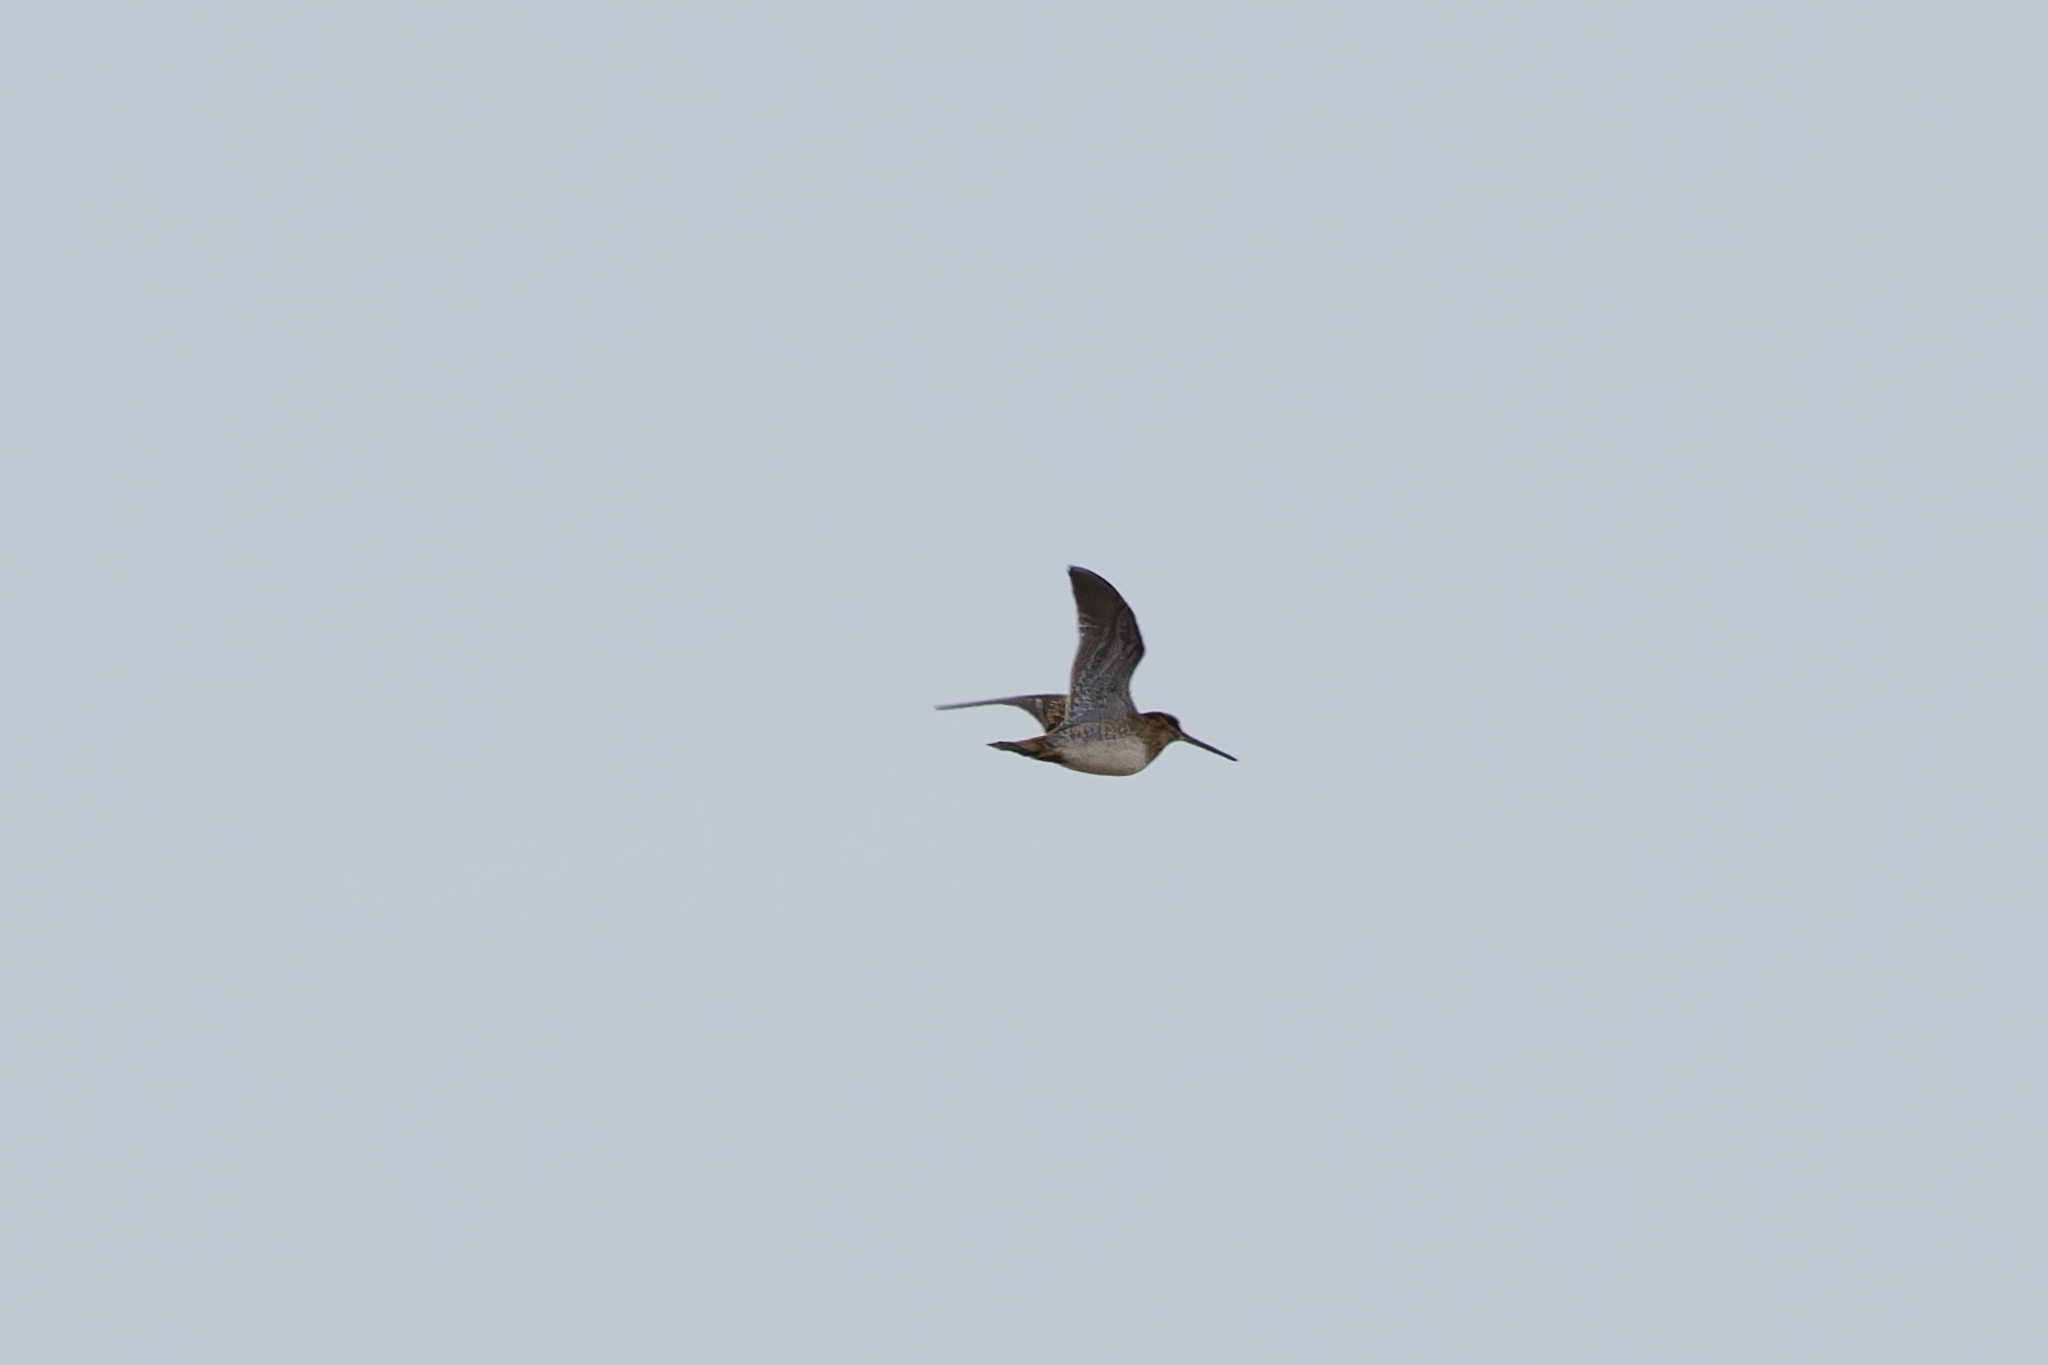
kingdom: Animalia
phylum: Chordata
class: Aves
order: Charadriiformes
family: Scolopacidae
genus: Gallinago
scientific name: Gallinago delicata
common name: Wilson's snipe
